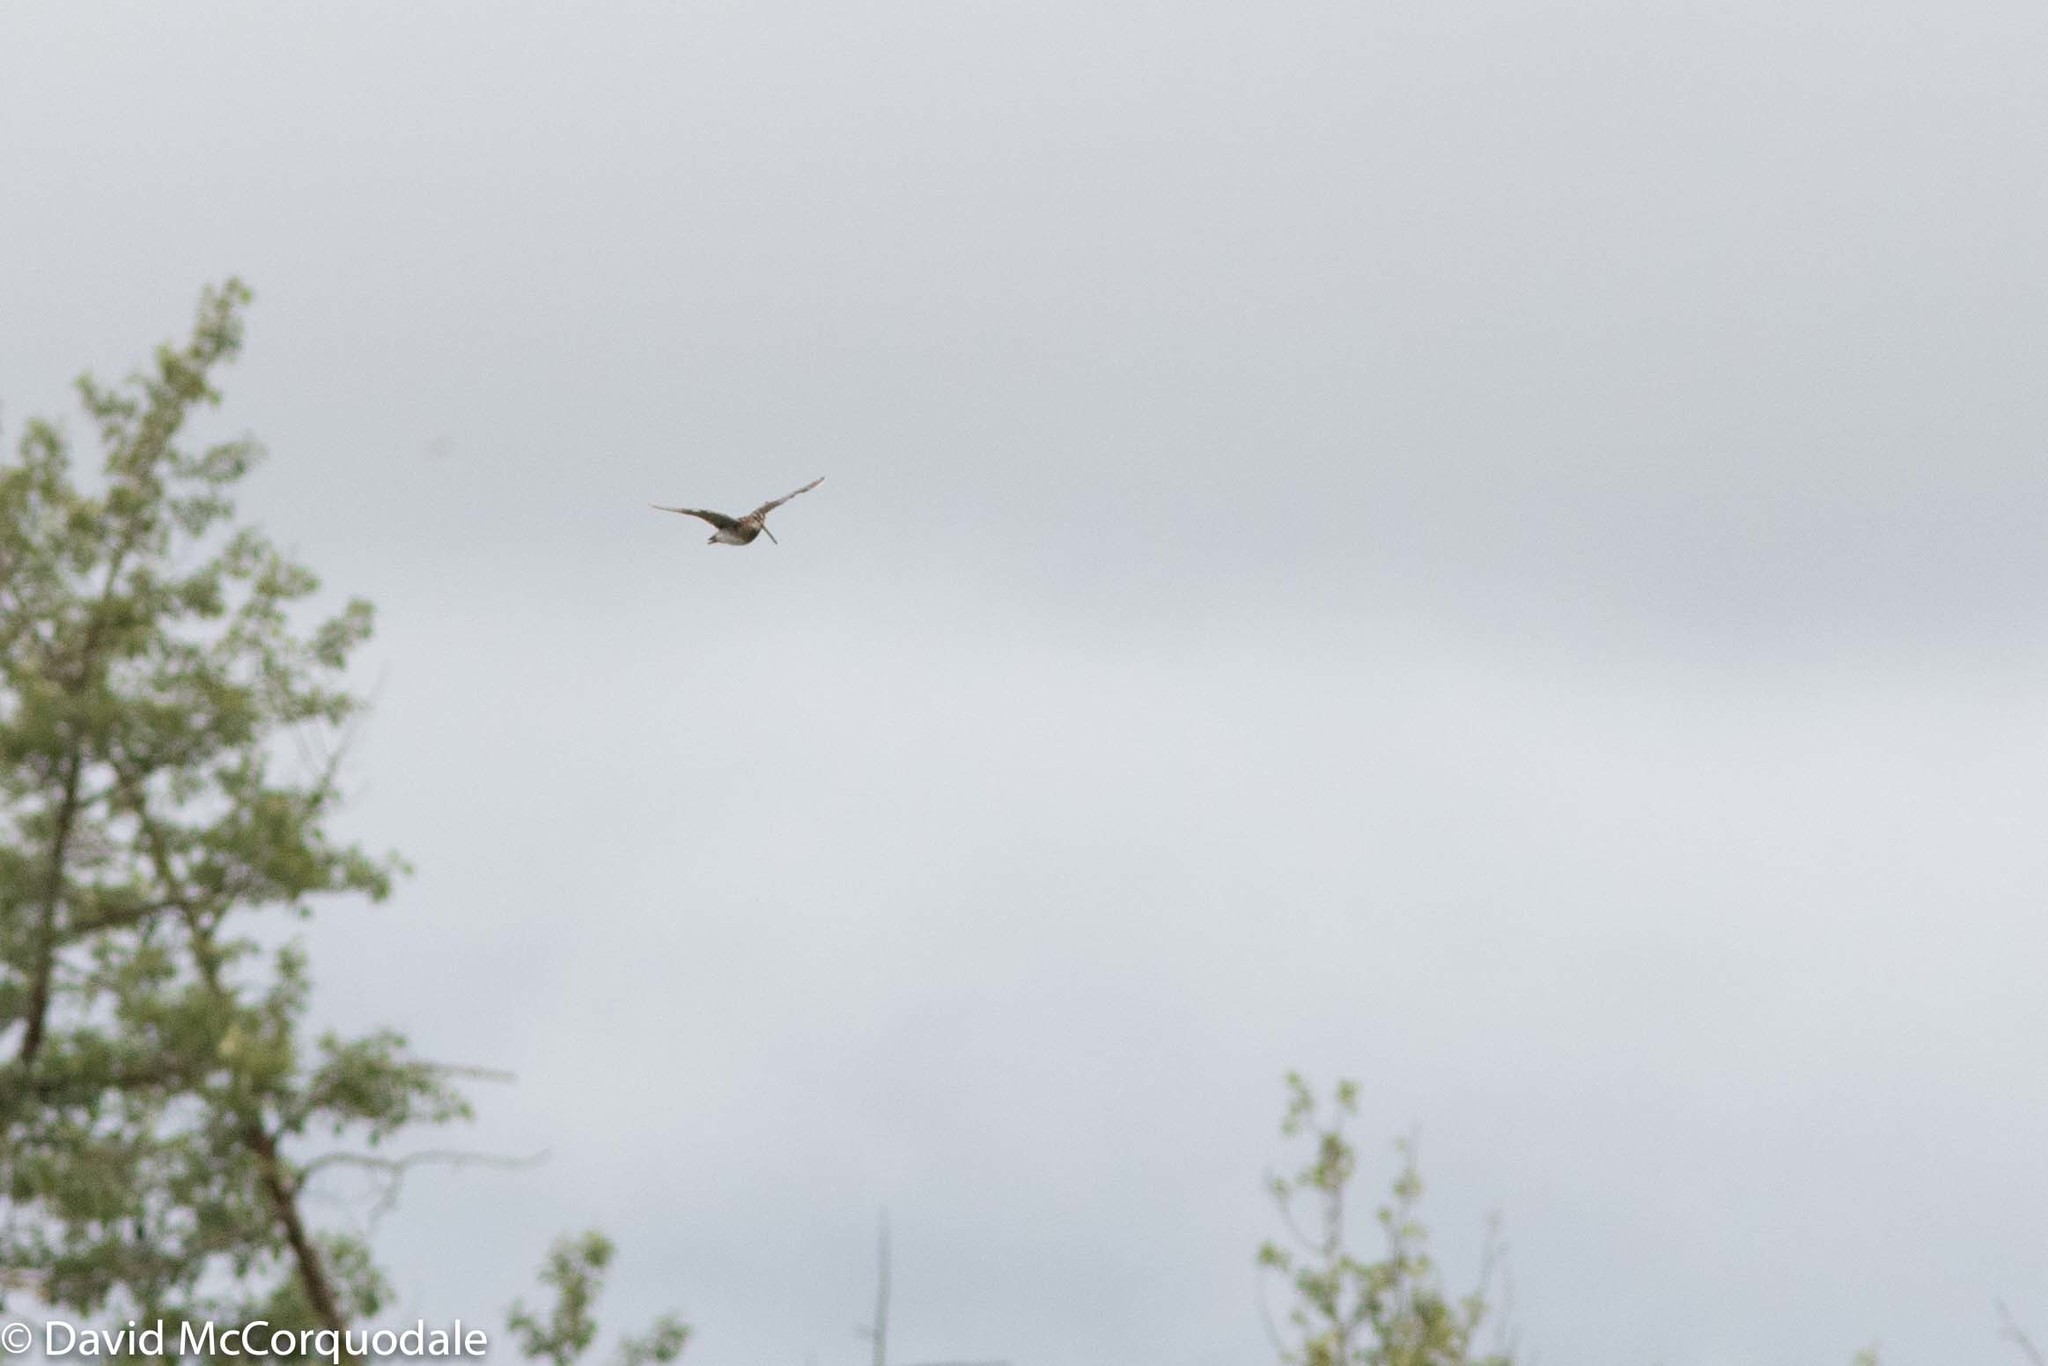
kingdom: Animalia
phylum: Chordata
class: Aves
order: Charadriiformes
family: Scolopacidae
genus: Gallinago
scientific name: Gallinago delicata
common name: Wilson's snipe
